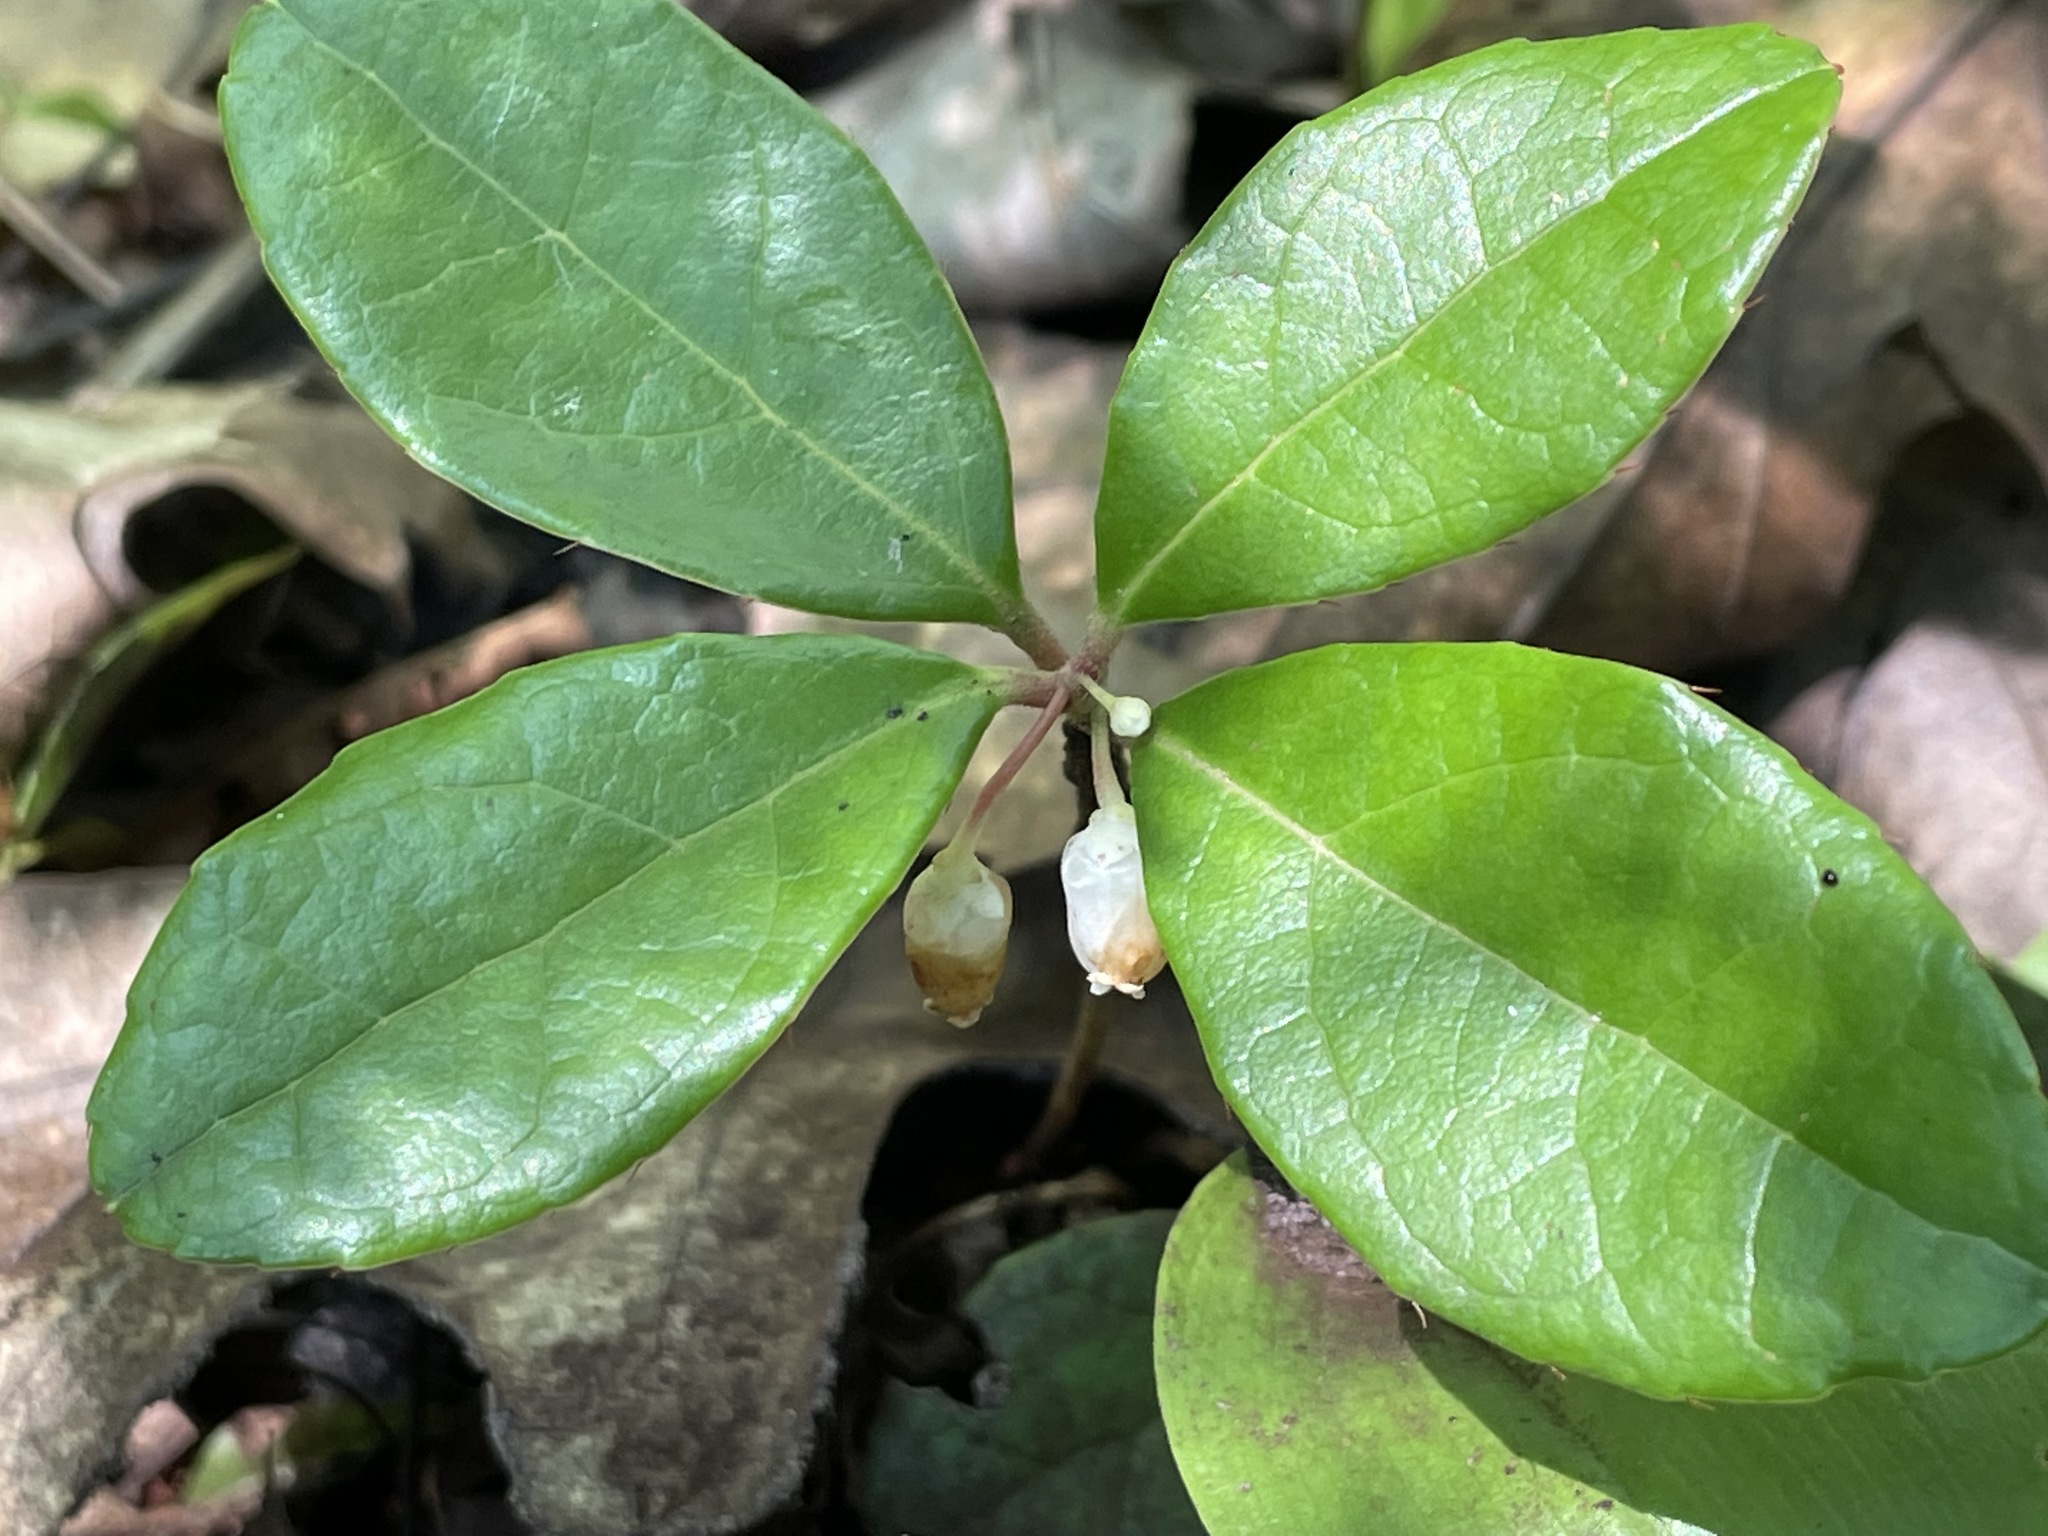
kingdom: Plantae
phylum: Tracheophyta
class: Magnoliopsida
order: Ericales
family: Ericaceae
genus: Gaultheria
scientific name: Gaultheria procumbens
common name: Checkerberry
